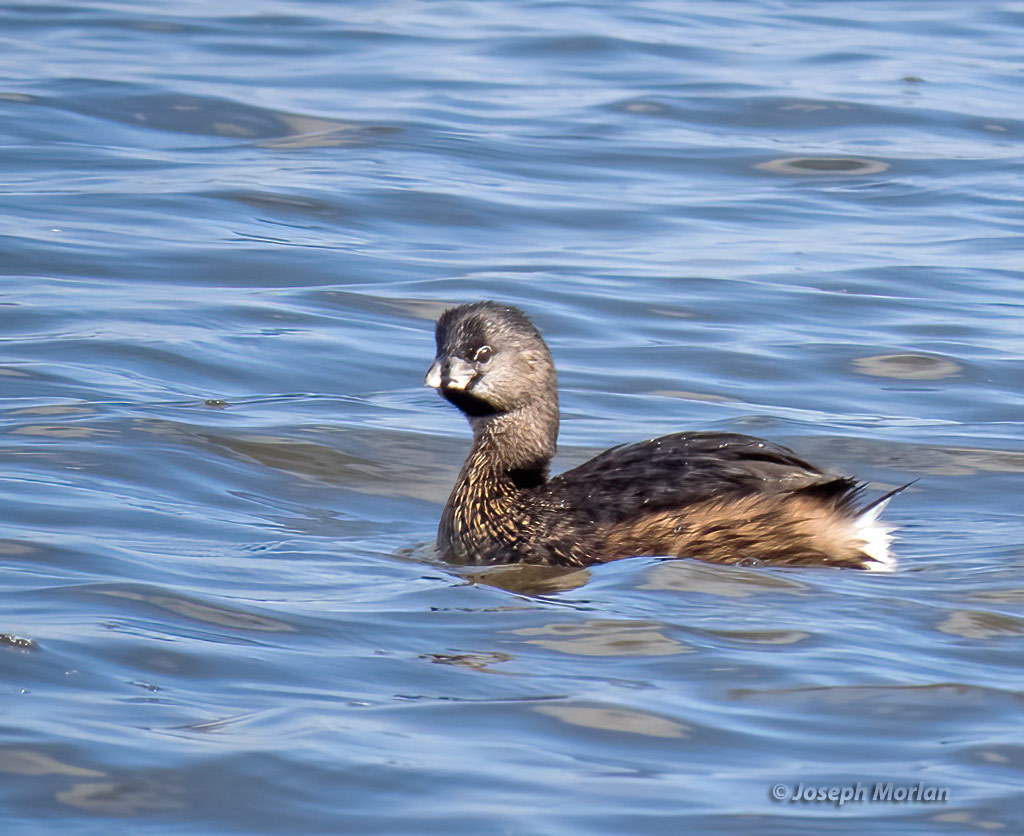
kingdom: Animalia
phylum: Chordata
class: Aves
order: Podicipediformes
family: Podicipedidae
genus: Podilymbus
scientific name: Podilymbus podiceps
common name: Pied-billed grebe
